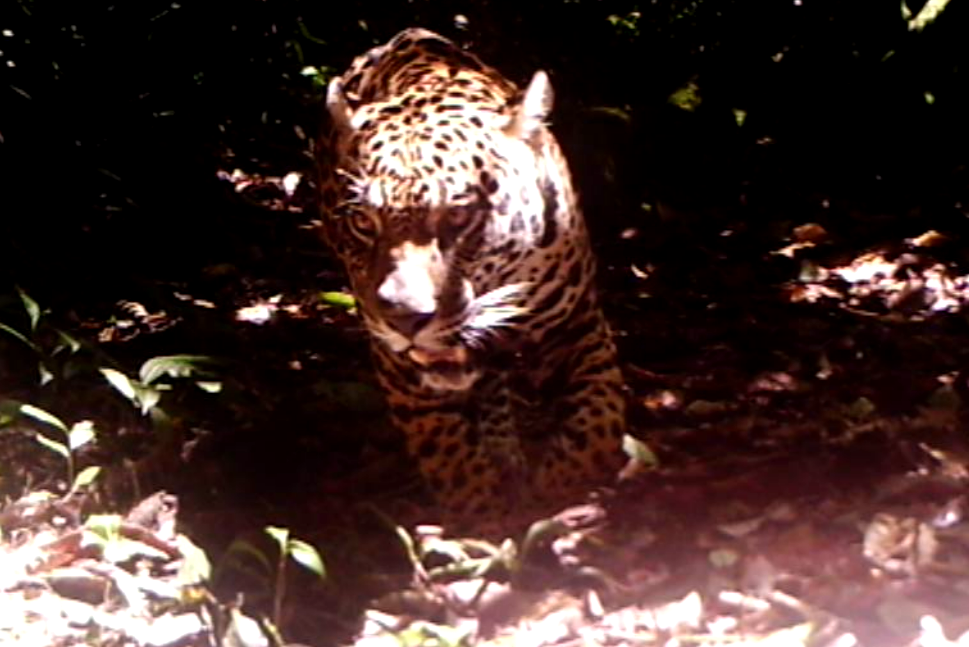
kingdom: Animalia
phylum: Chordata
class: Mammalia
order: Carnivora
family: Felidae
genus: Panthera
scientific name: Panthera onca
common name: Jaguar
